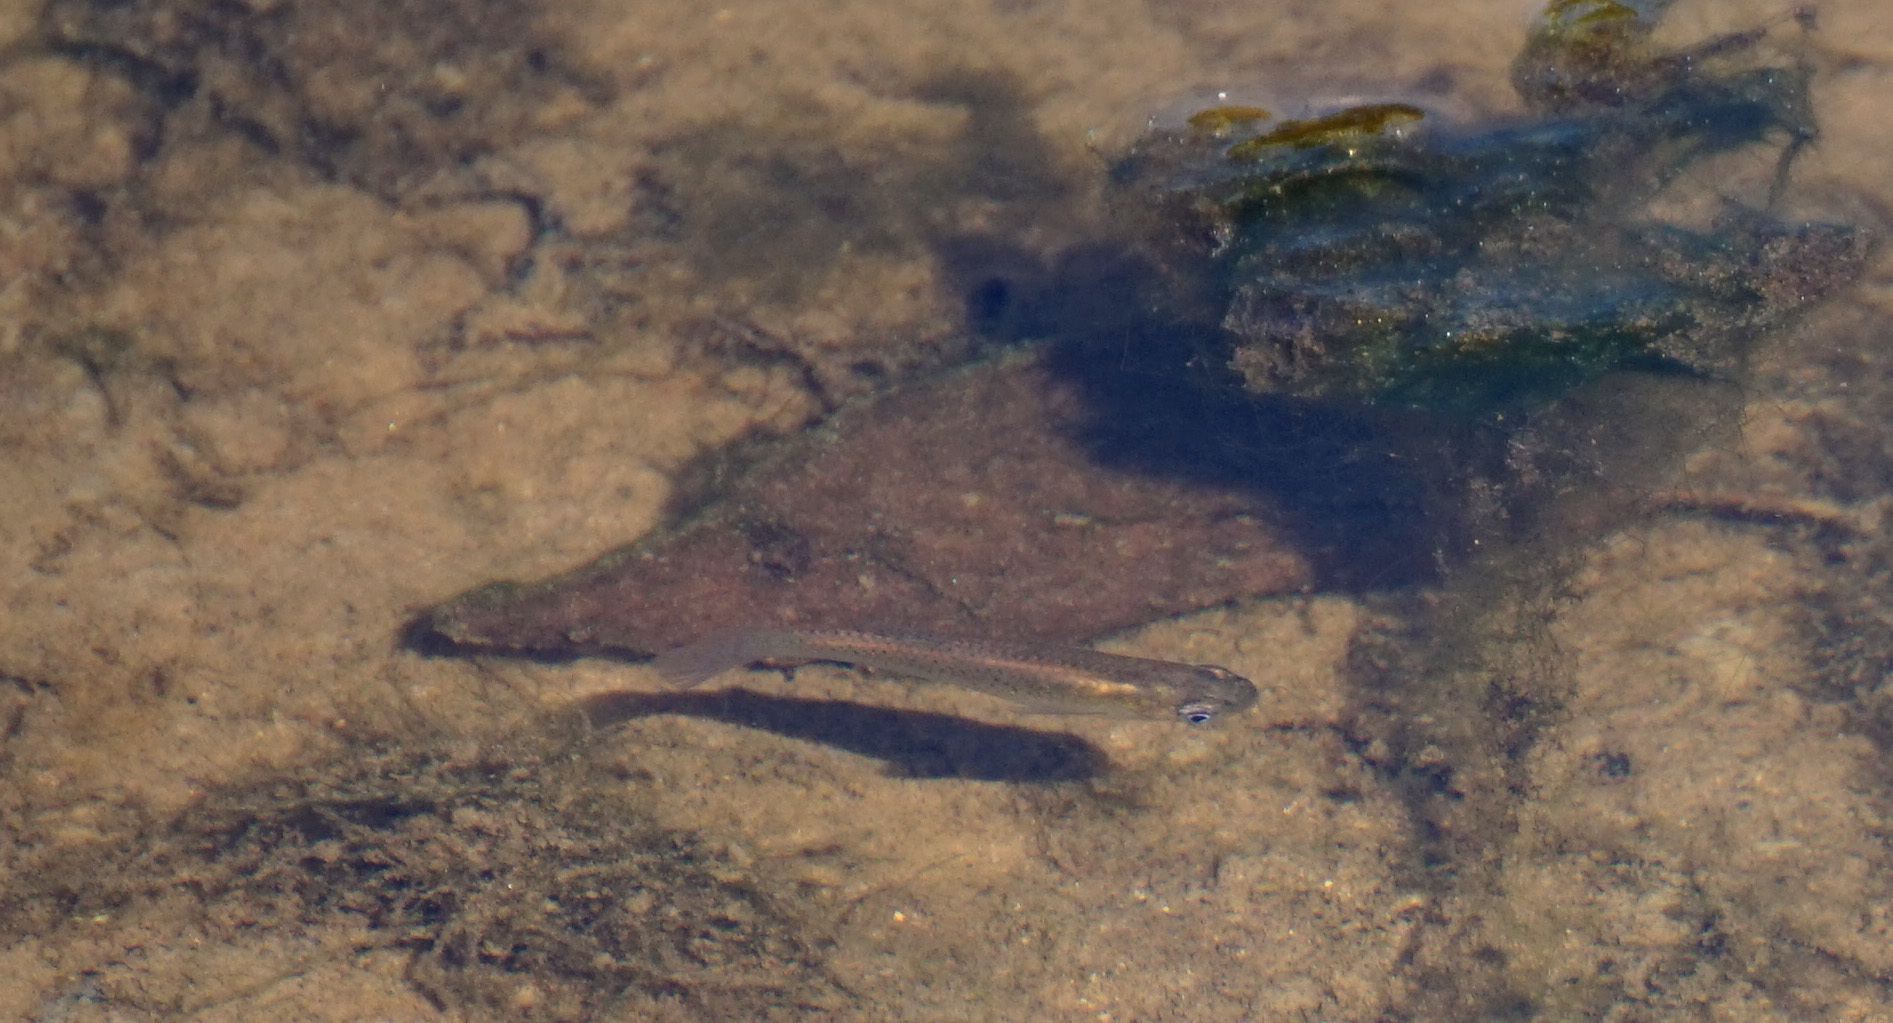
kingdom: Animalia
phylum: Chordata
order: Cyprinodontiformes
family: Poeciliidae
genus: Gambusia
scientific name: Gambusia holbrooki
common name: Eastern mosquitofish
